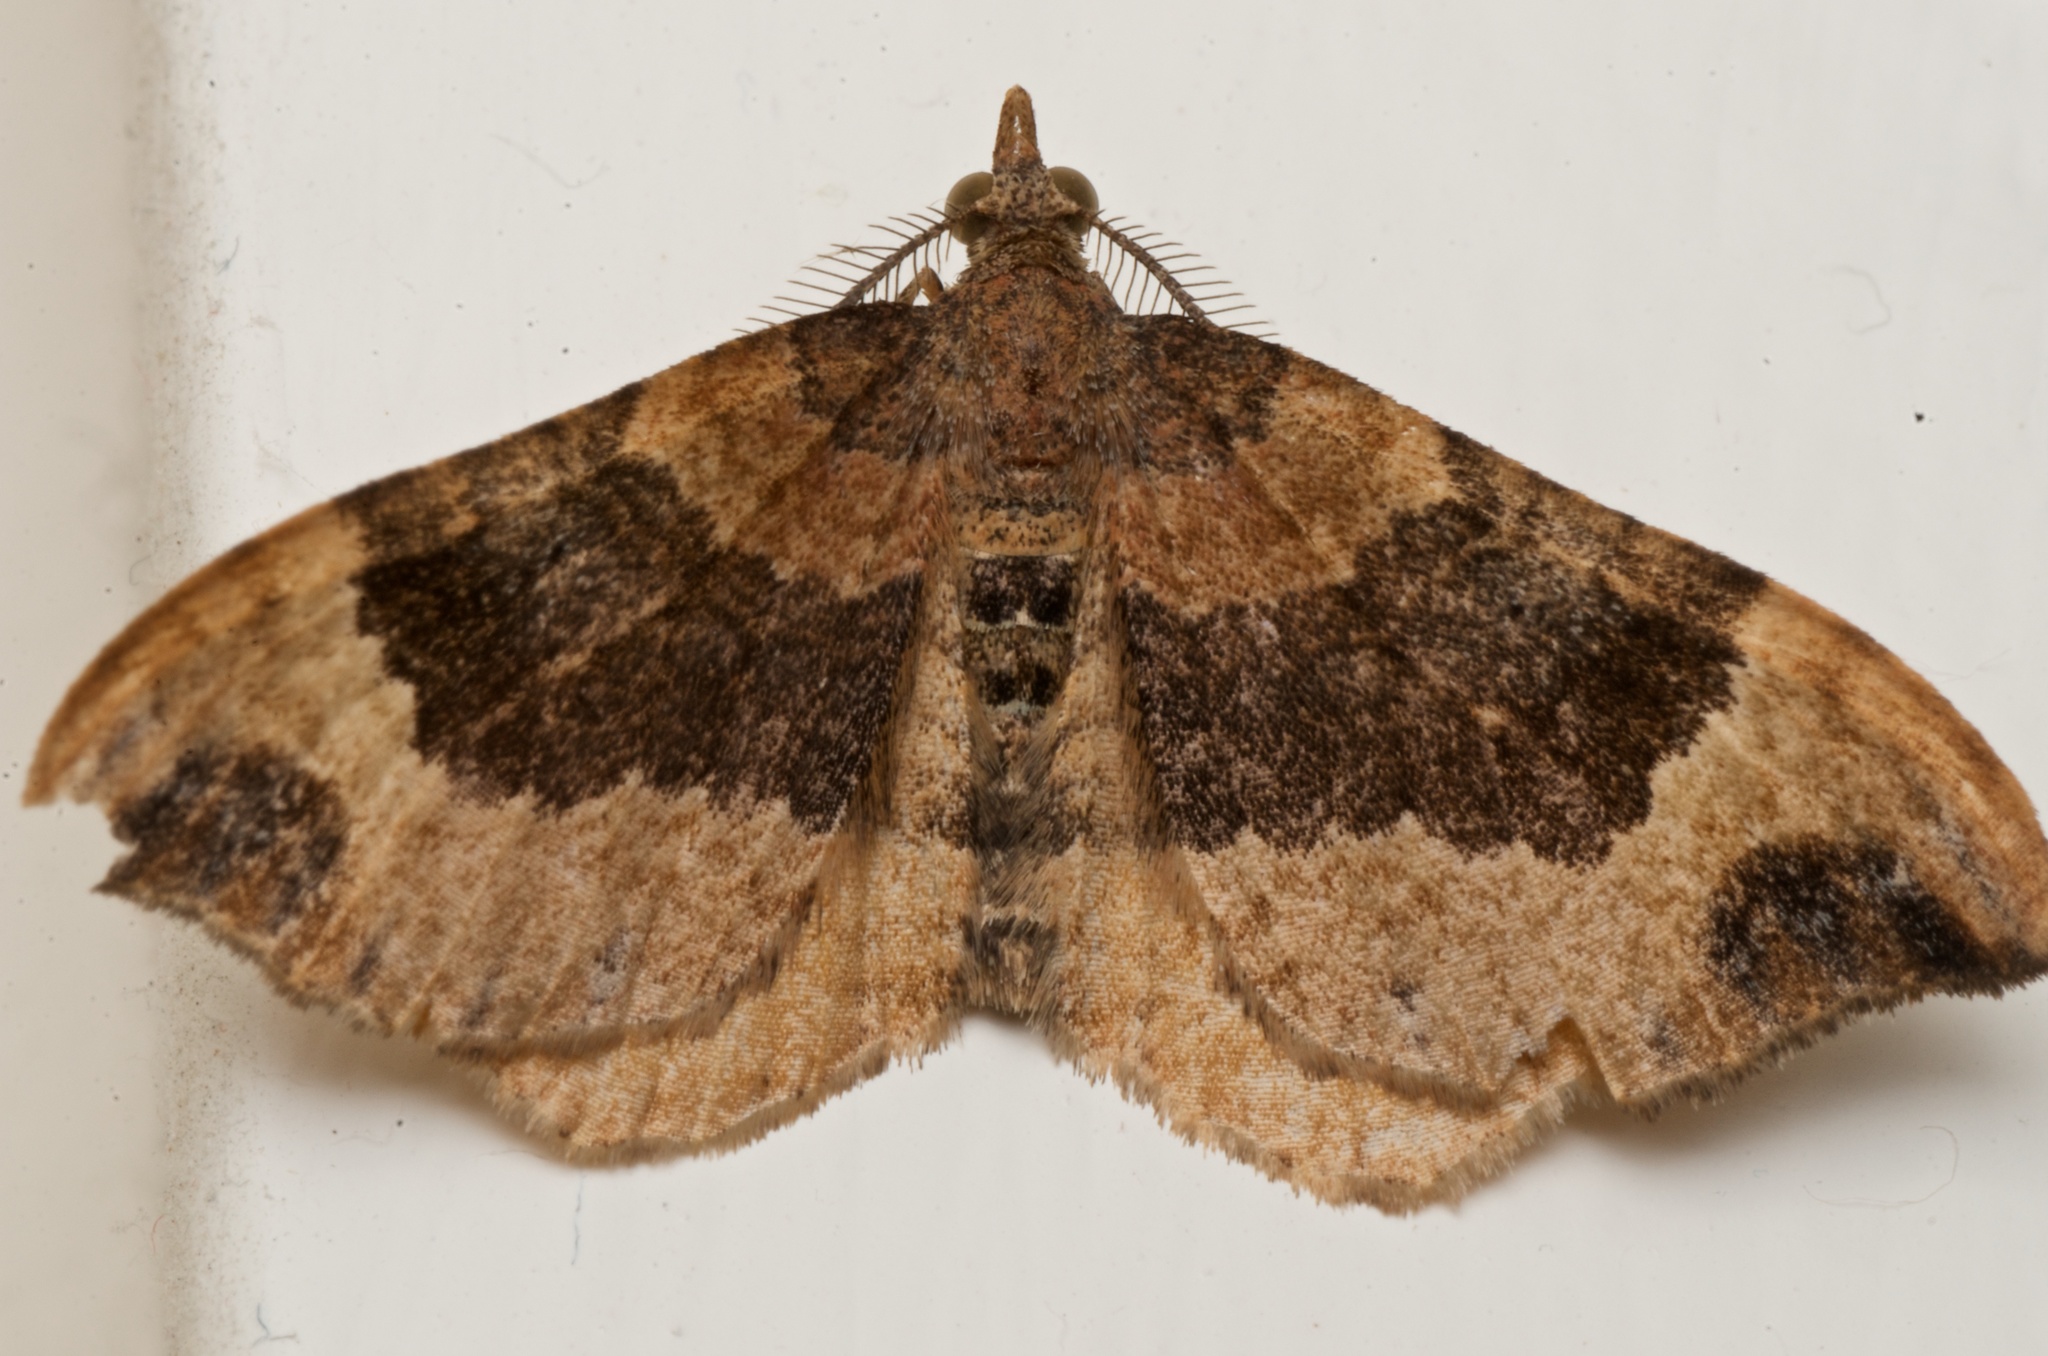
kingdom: Animalia
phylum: Arthropoda
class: Insecta
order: Lepidoptera
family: Geometridae
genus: Homodotis
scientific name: Homodotis megaspilata
